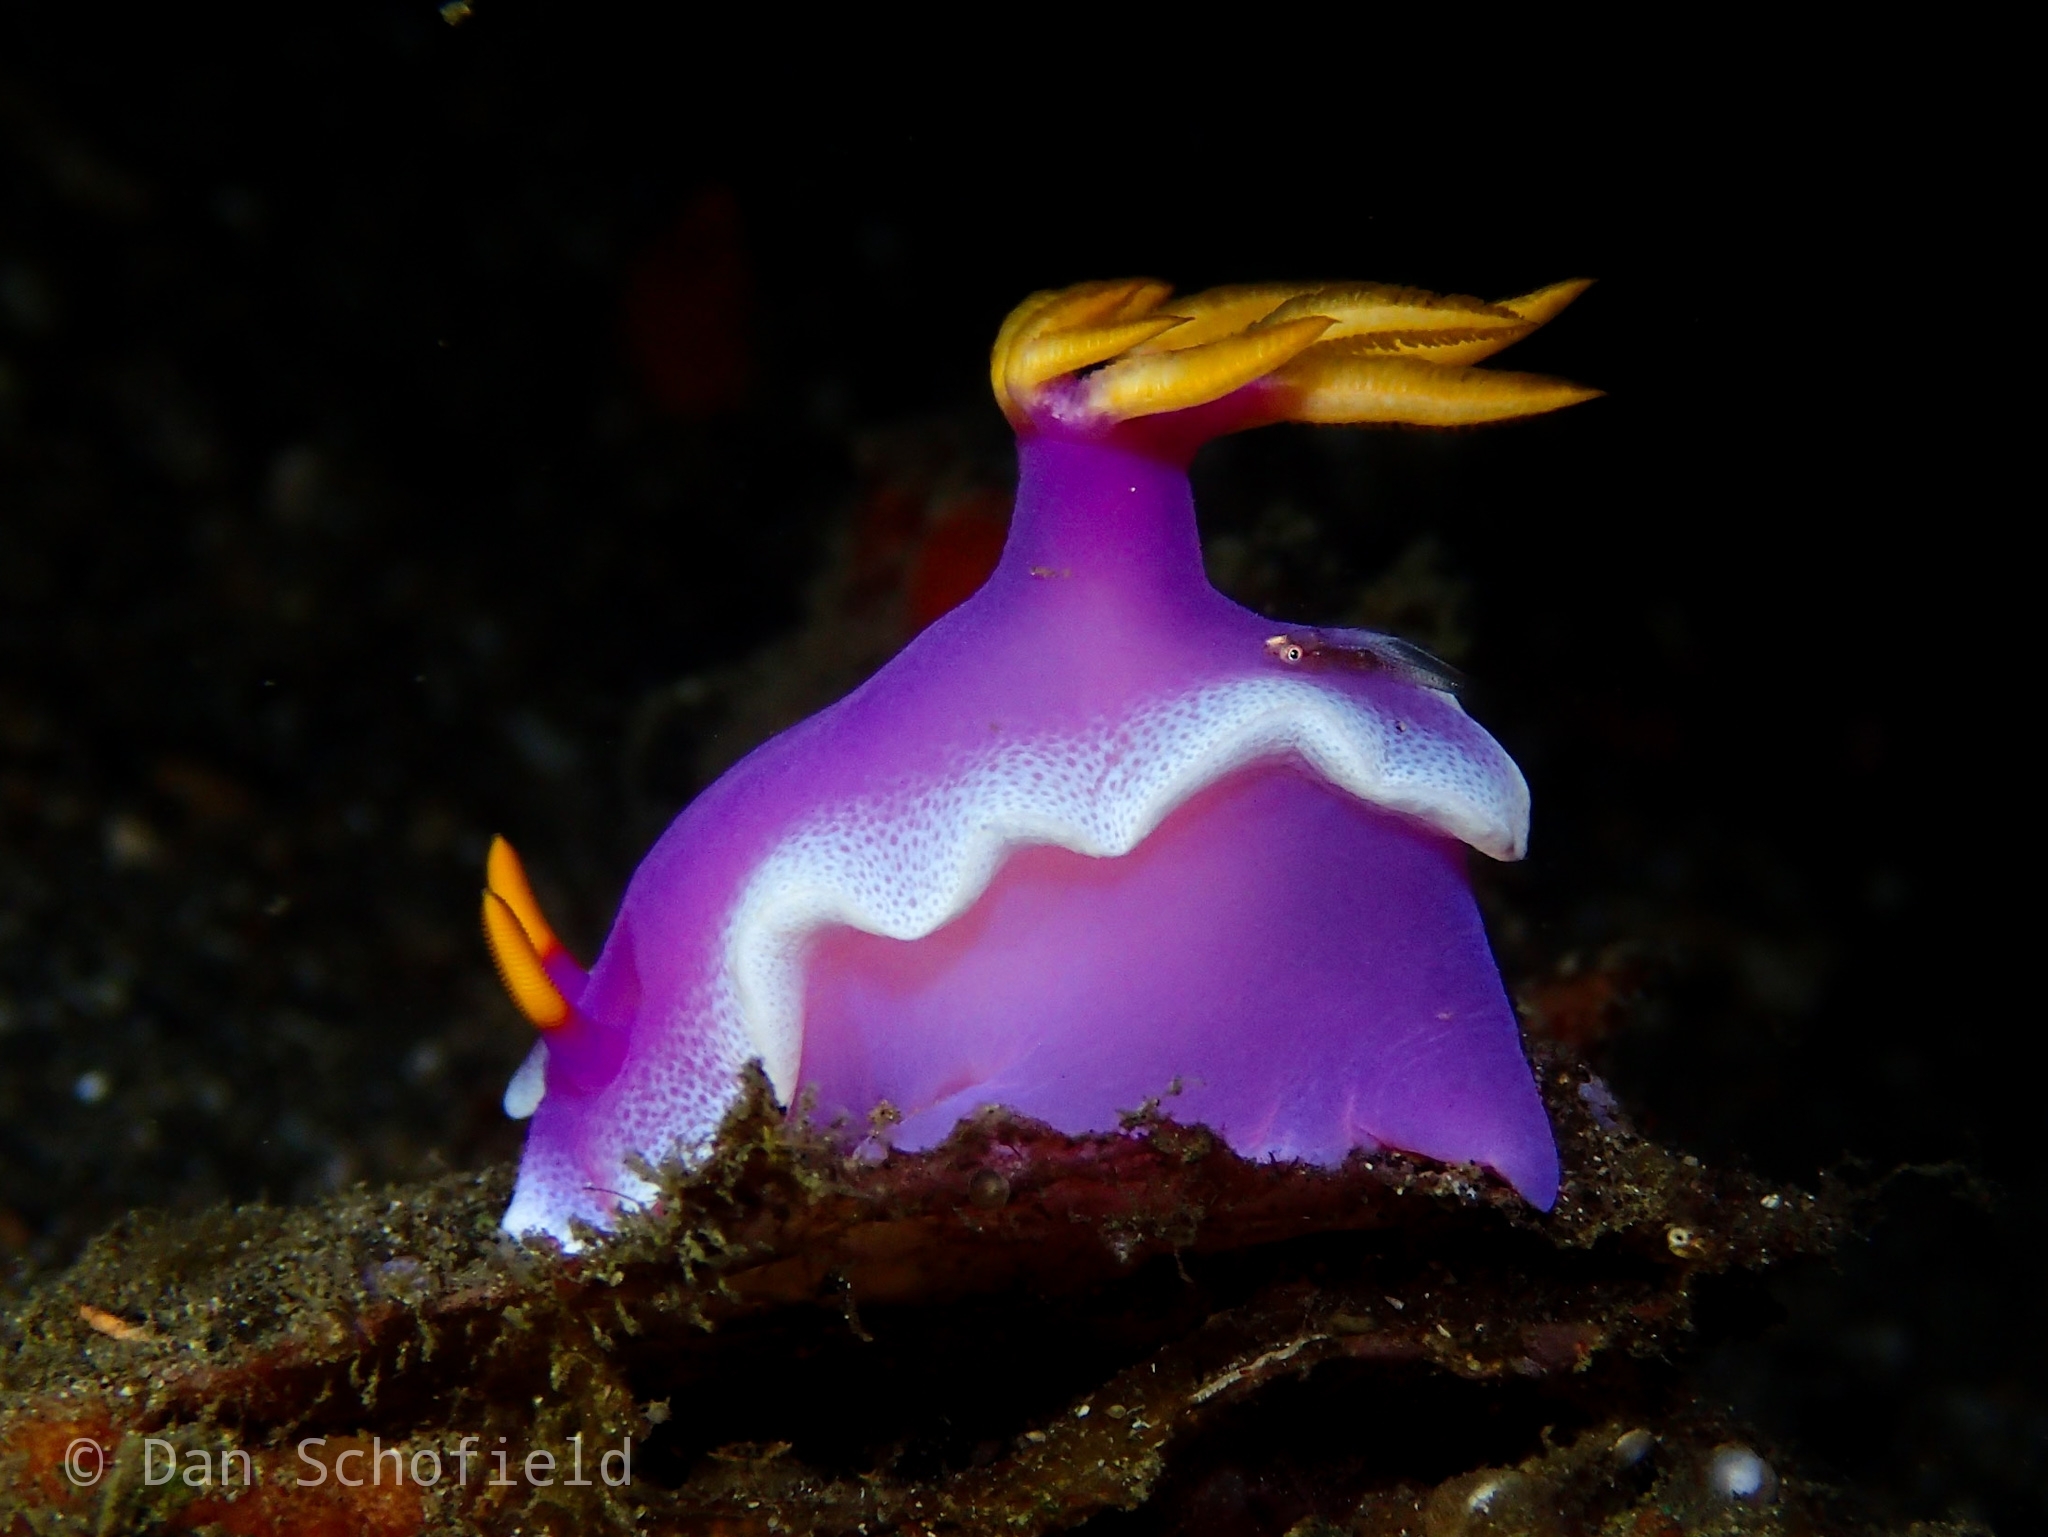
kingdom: Animalia
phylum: Mollusca
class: Gastropoda
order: Nudibranchia
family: Chromodorididae
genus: Hypselodoris
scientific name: Hypselodoris apolegma
